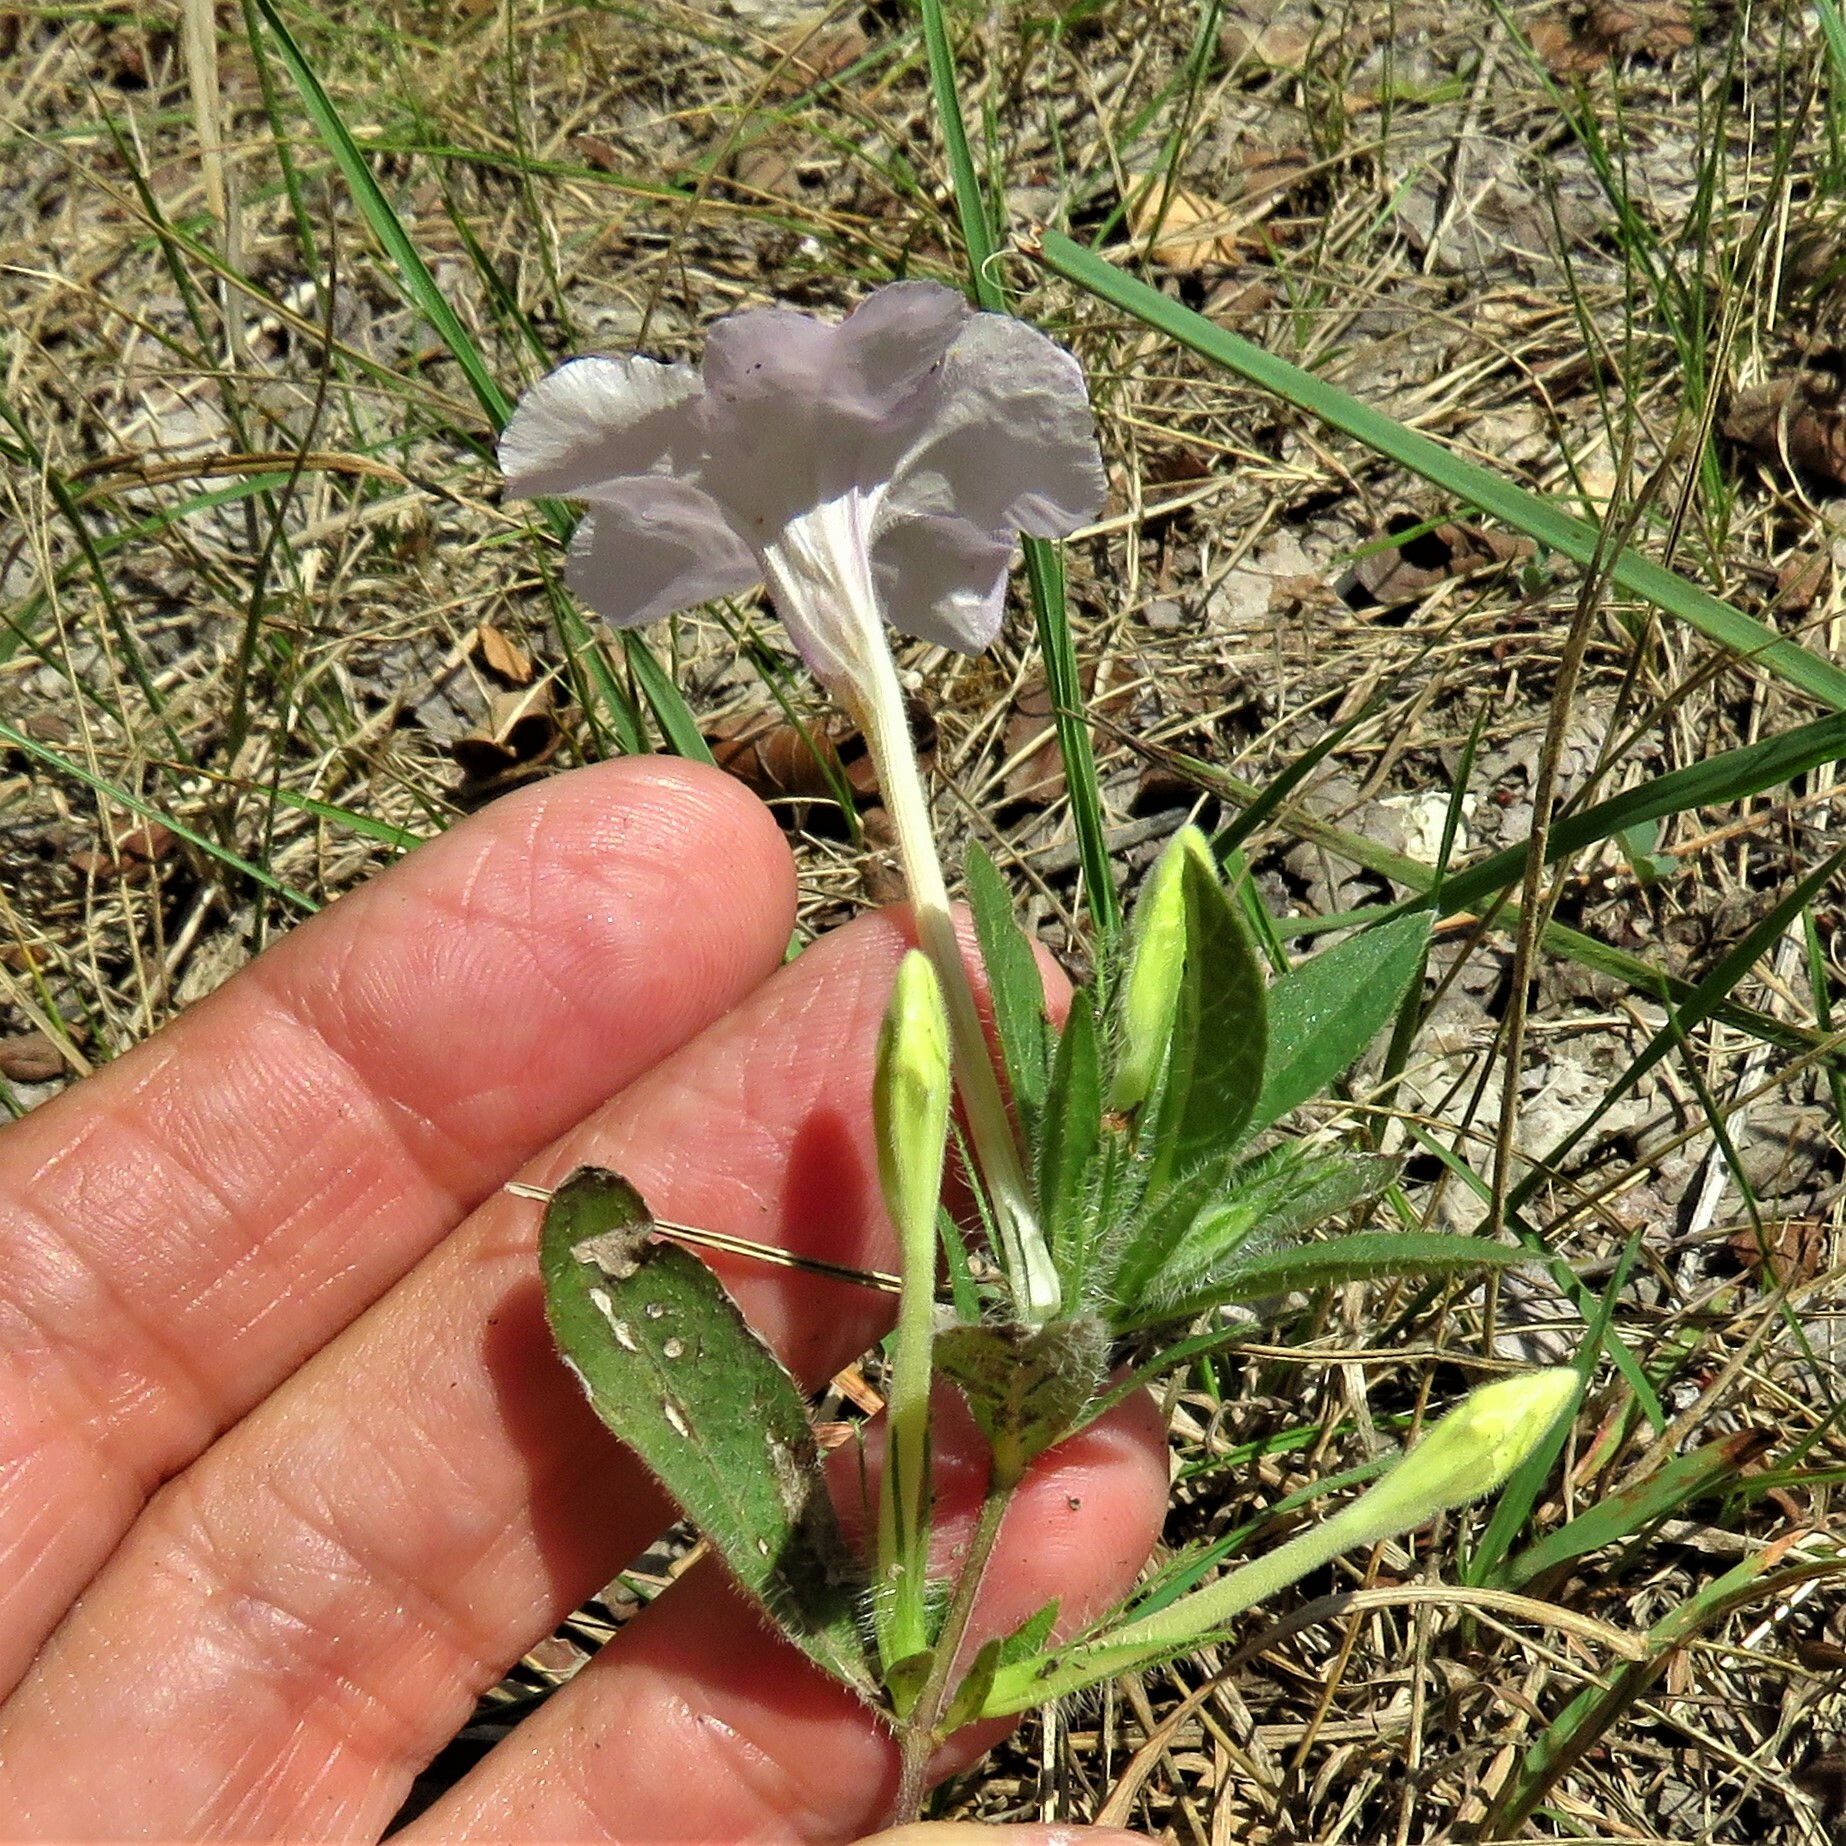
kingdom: Plantae
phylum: Tracheophyta
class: Magnoliopsida
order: Lamiales
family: Acanthaceae
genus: Ruellia
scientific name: Ruellia humilis
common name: Fringe-leaf ruellia
